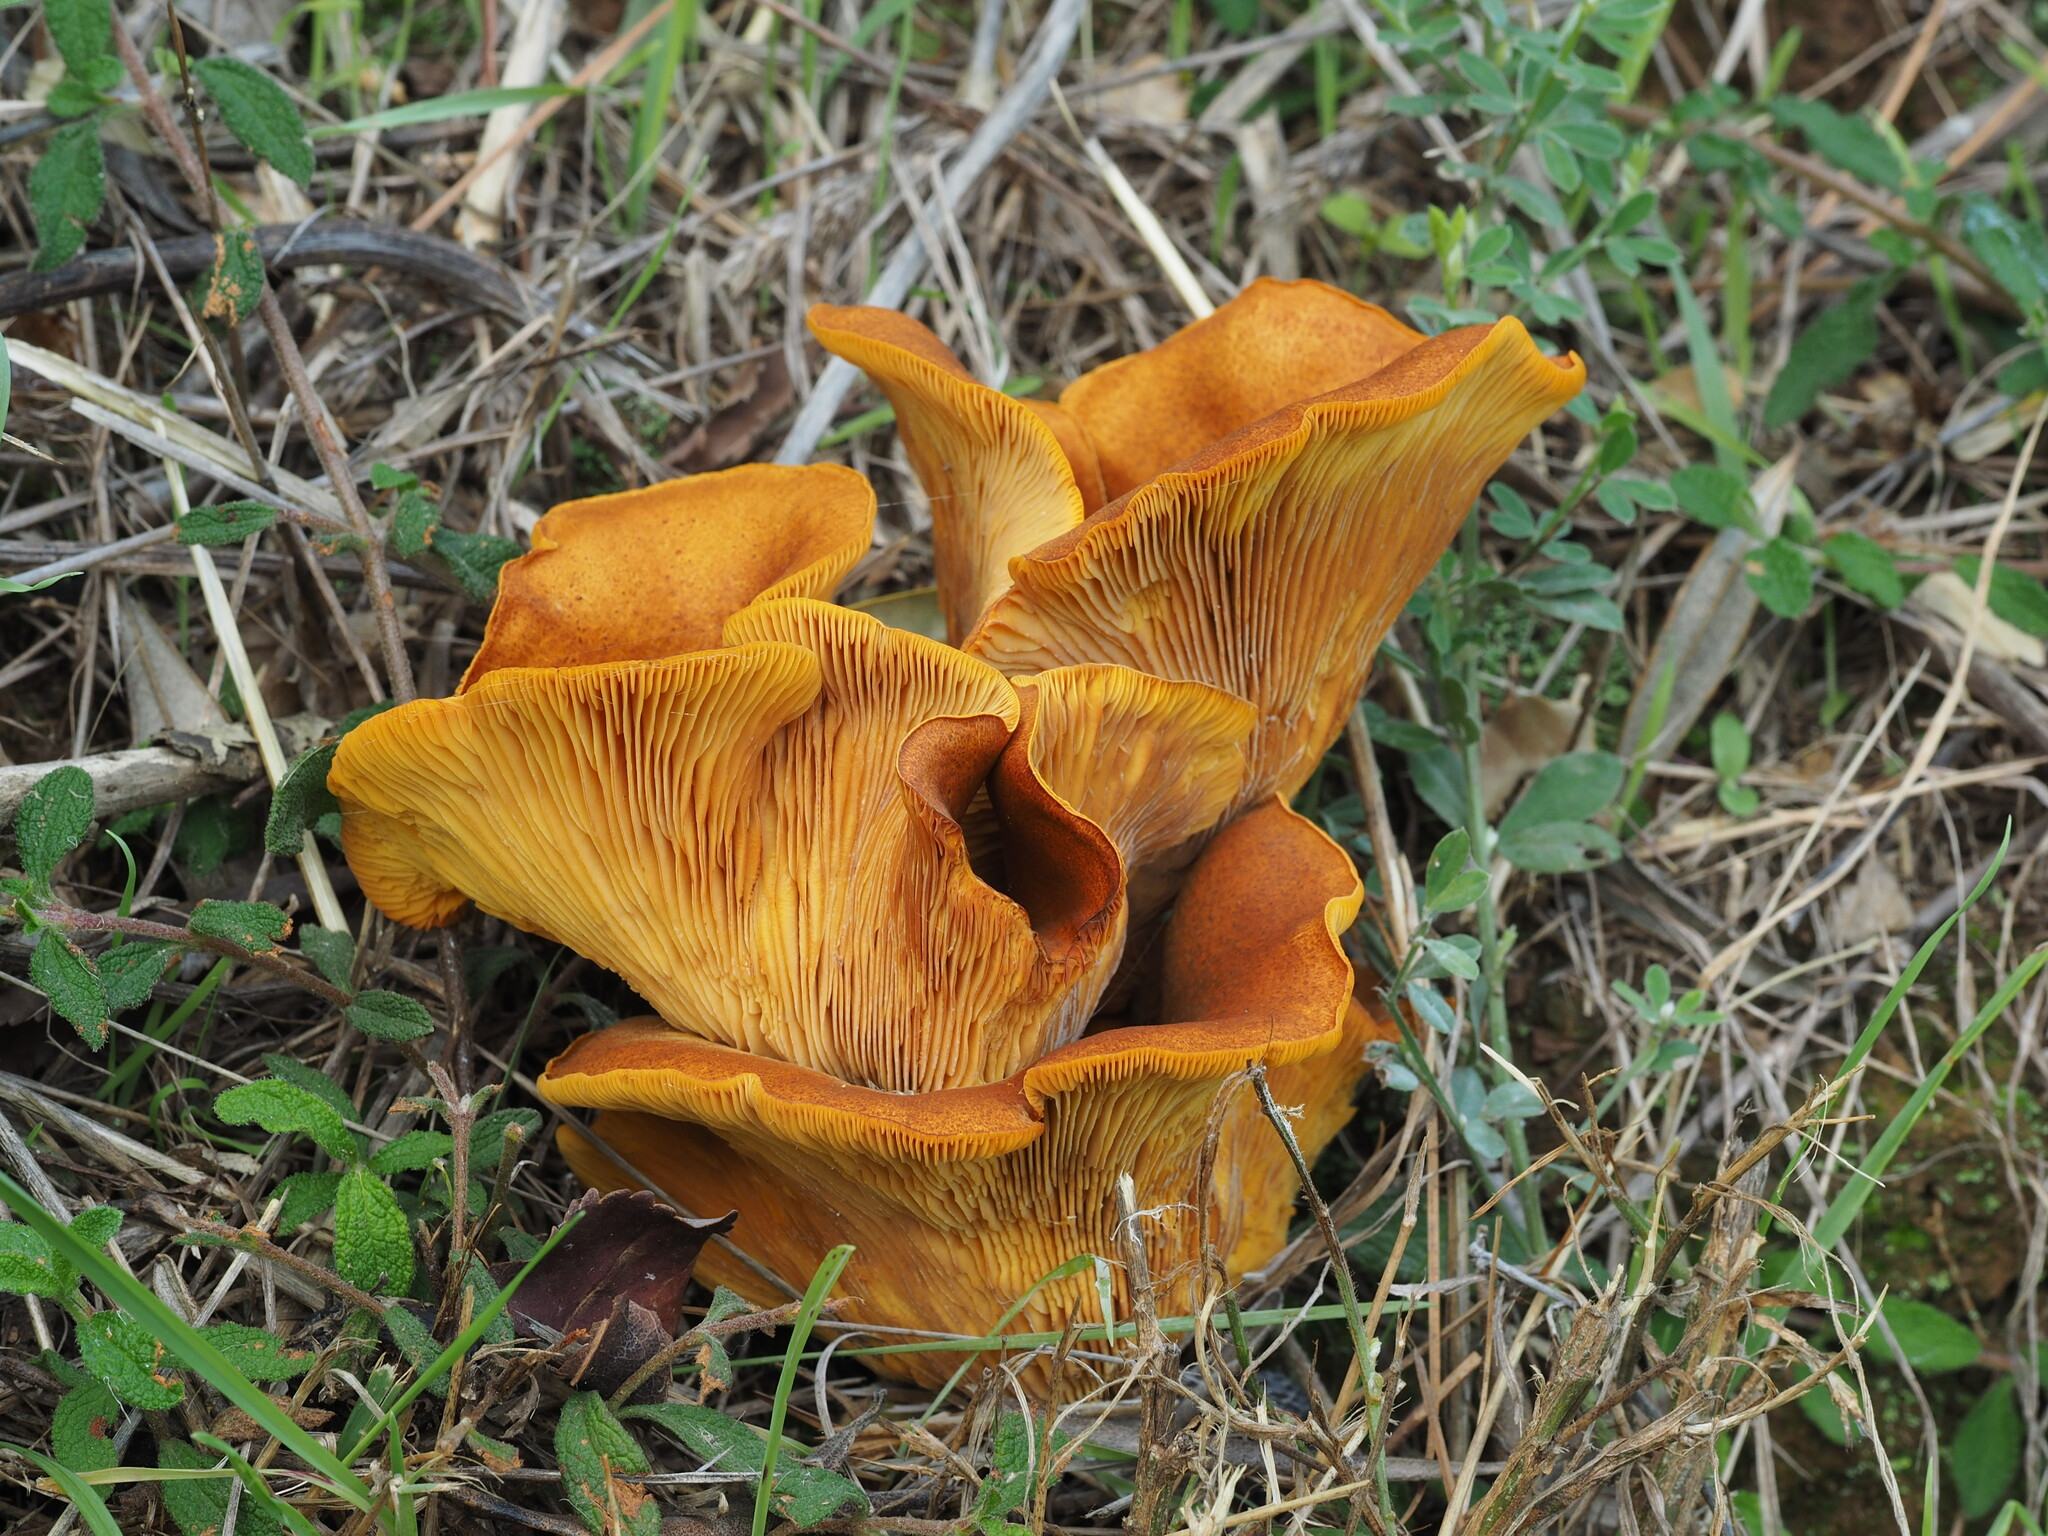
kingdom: Fungi
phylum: Basidiomycota
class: Agaricomycetes
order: Agaricales
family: Omphalotaceae
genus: Omphalotus
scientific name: Omphalotus olearius
